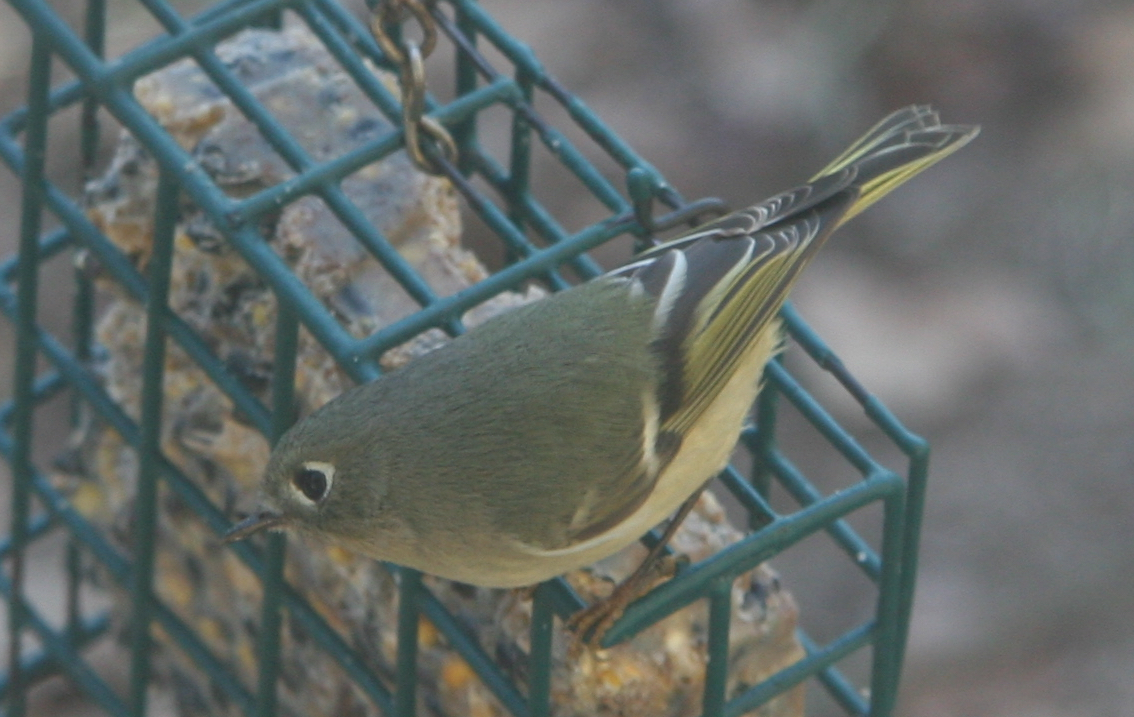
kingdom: Animalia
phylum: Chordata
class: Aves
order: Passeriformes
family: Regulidae
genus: Regulus
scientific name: Regulus calendula
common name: Ruby-crowned kinglet
